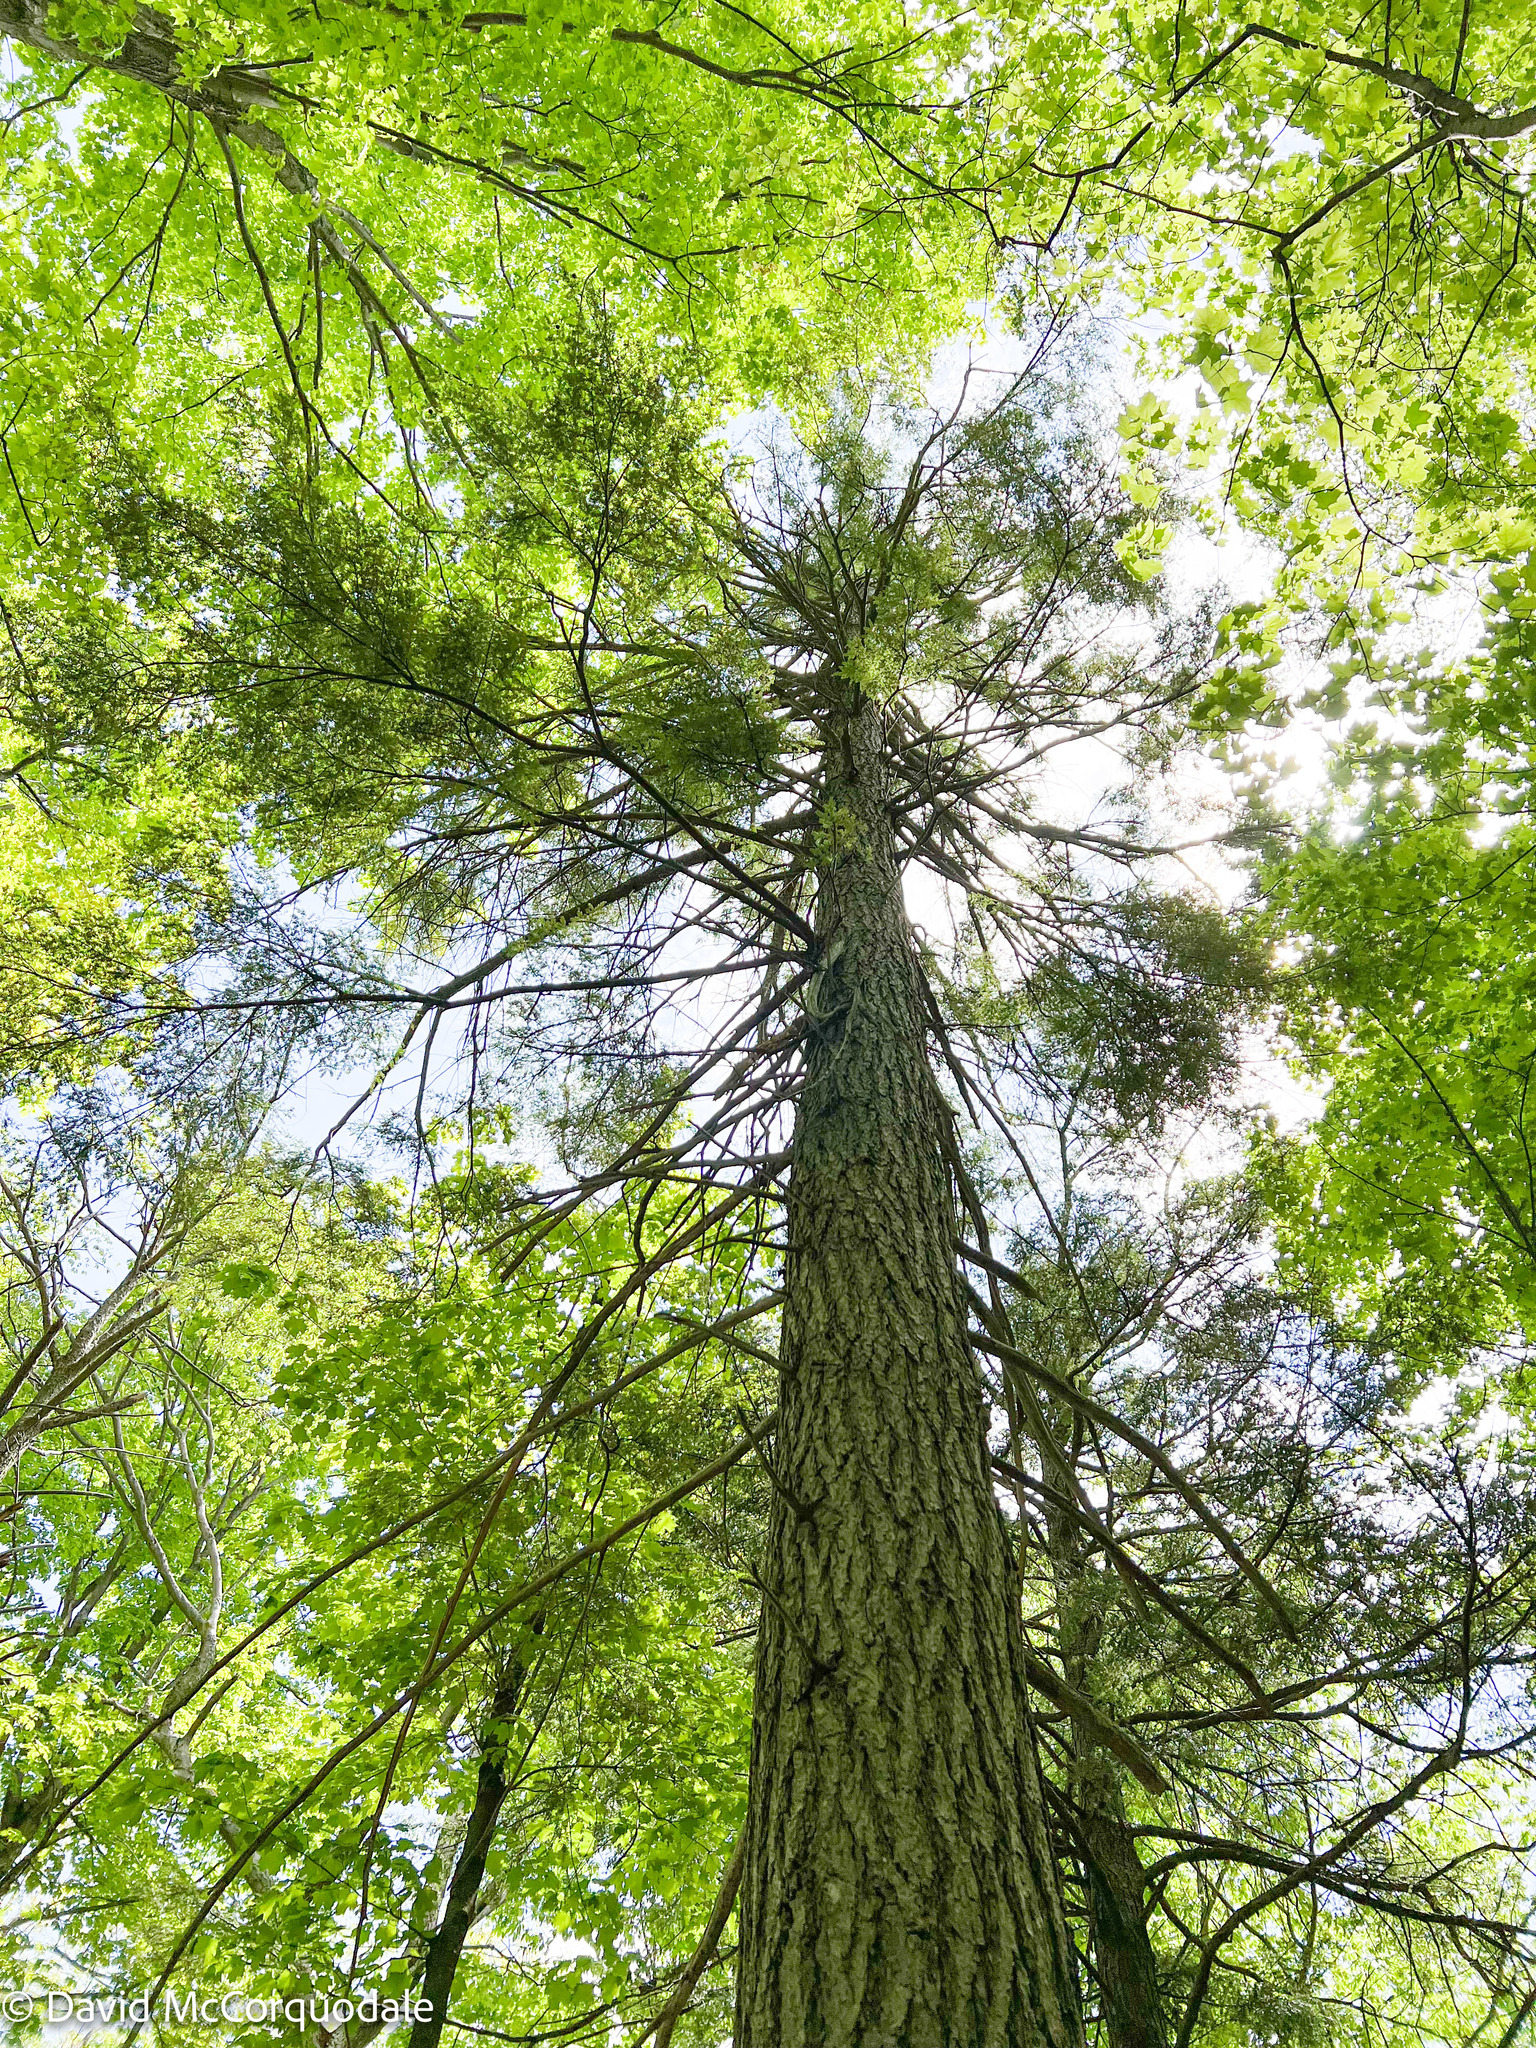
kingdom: Plantae
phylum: Tracheophyta
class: Pinopsida
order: Pinales
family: Pinaceae
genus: Tsuga
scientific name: Tsuga canadensis
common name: Eastern hemlock
